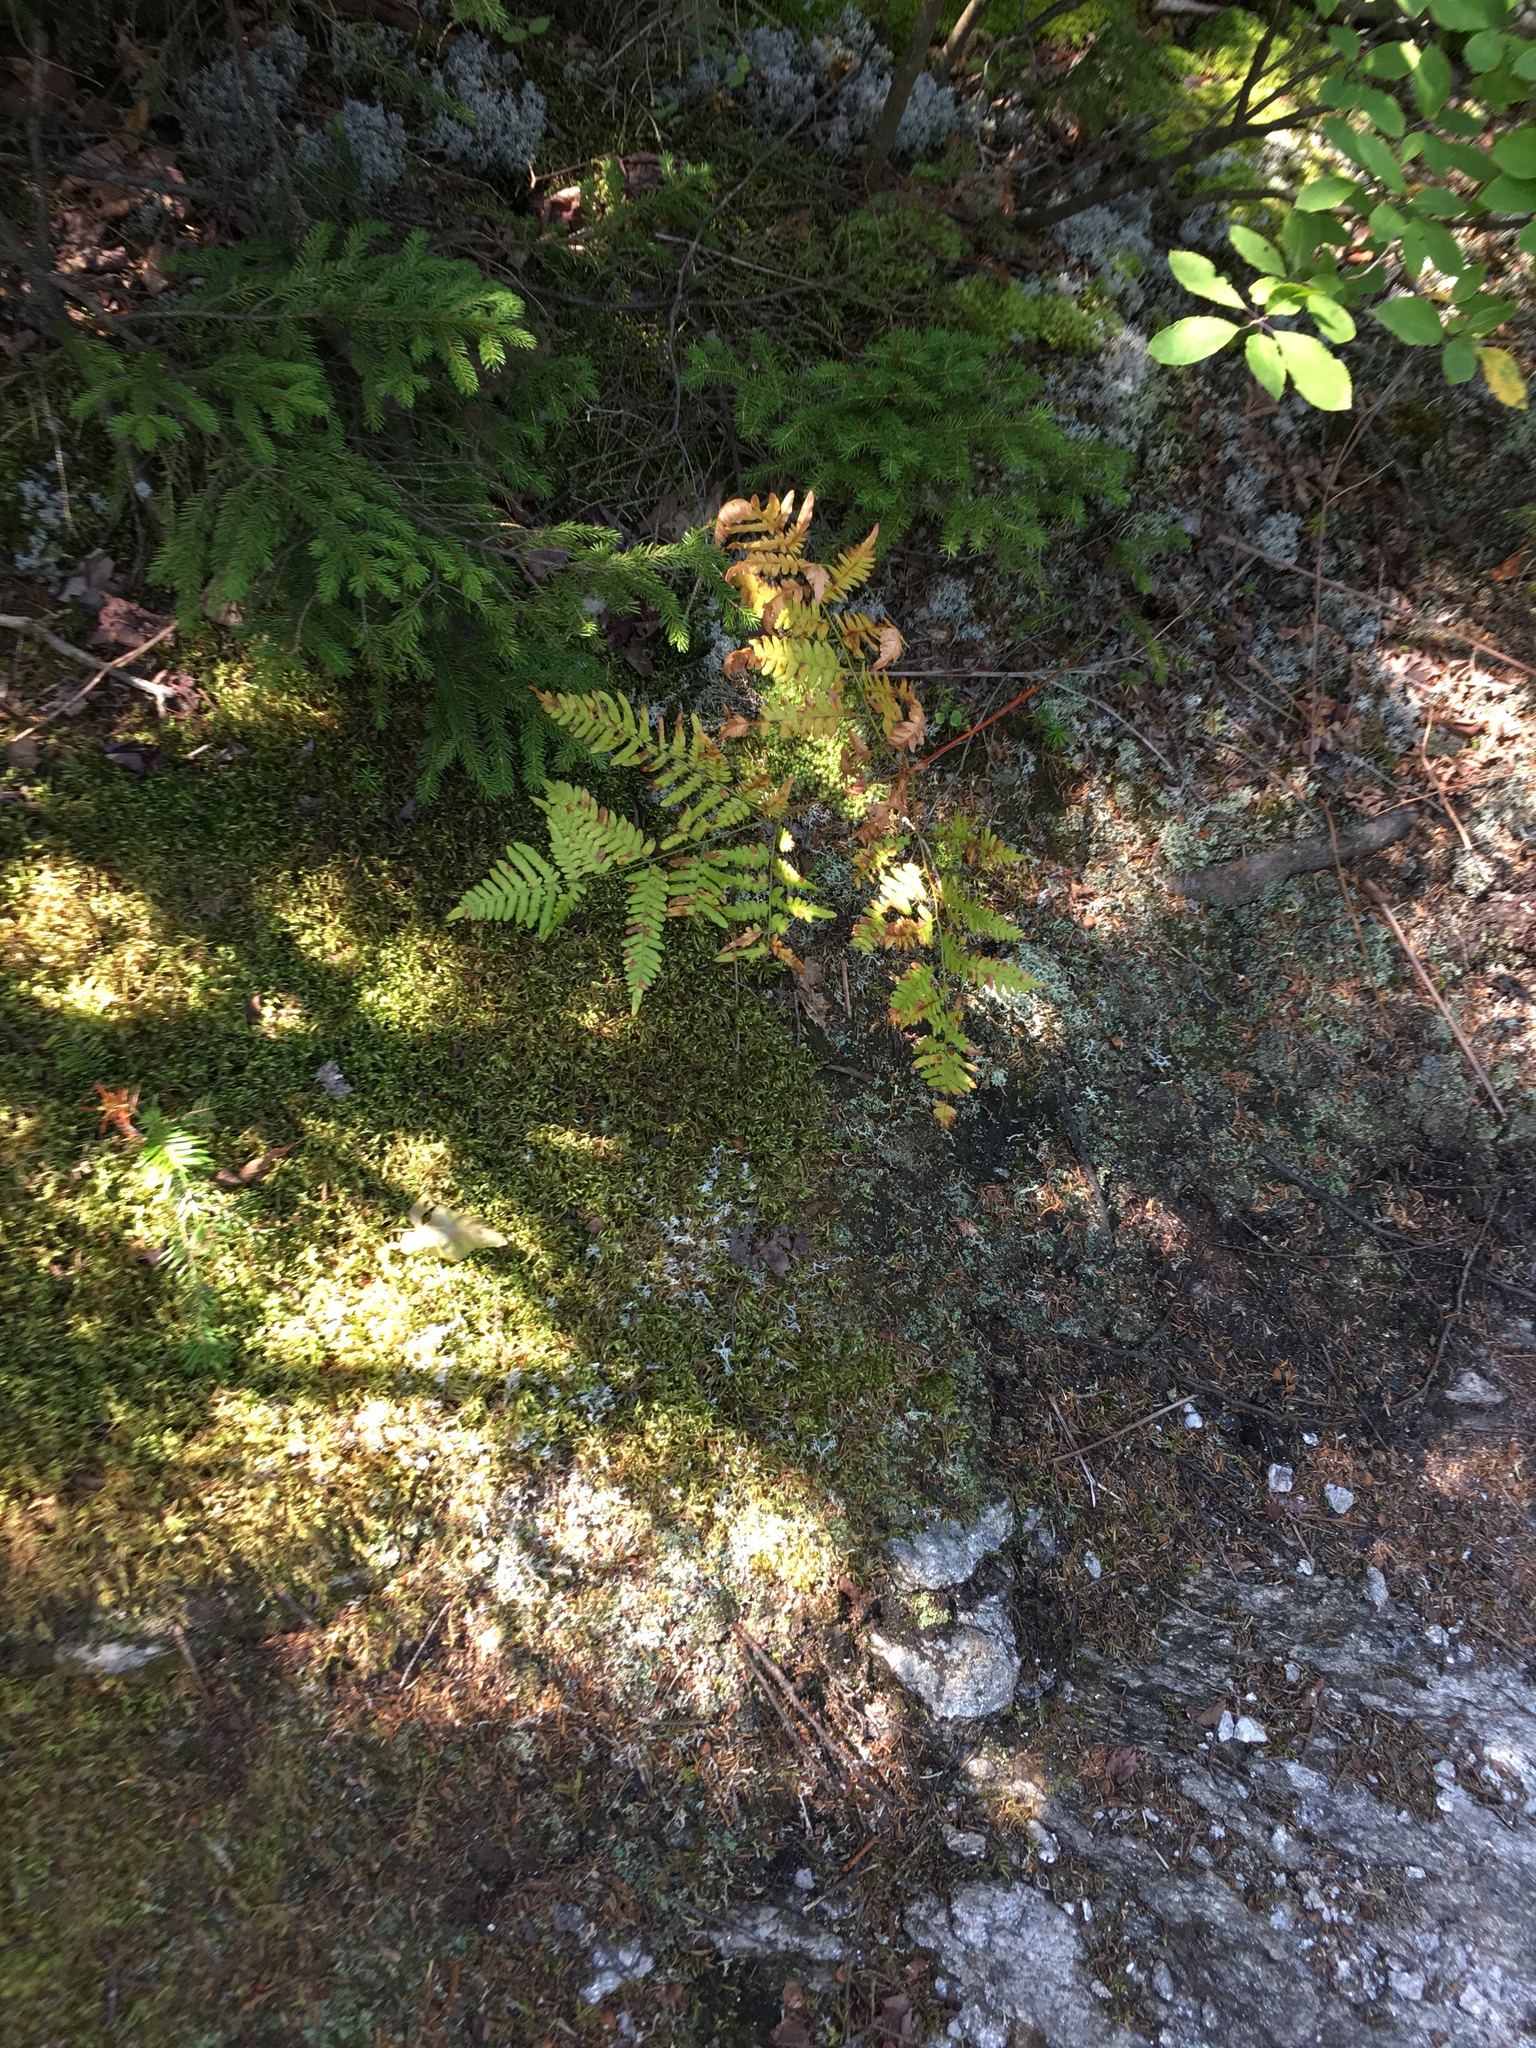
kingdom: Plantae
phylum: Tracheophyta
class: Polypodiopsida
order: Polypodiales
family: Dennstaedtiaceae
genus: Pteridium
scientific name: Pteridium aquilinum
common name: Bracken
